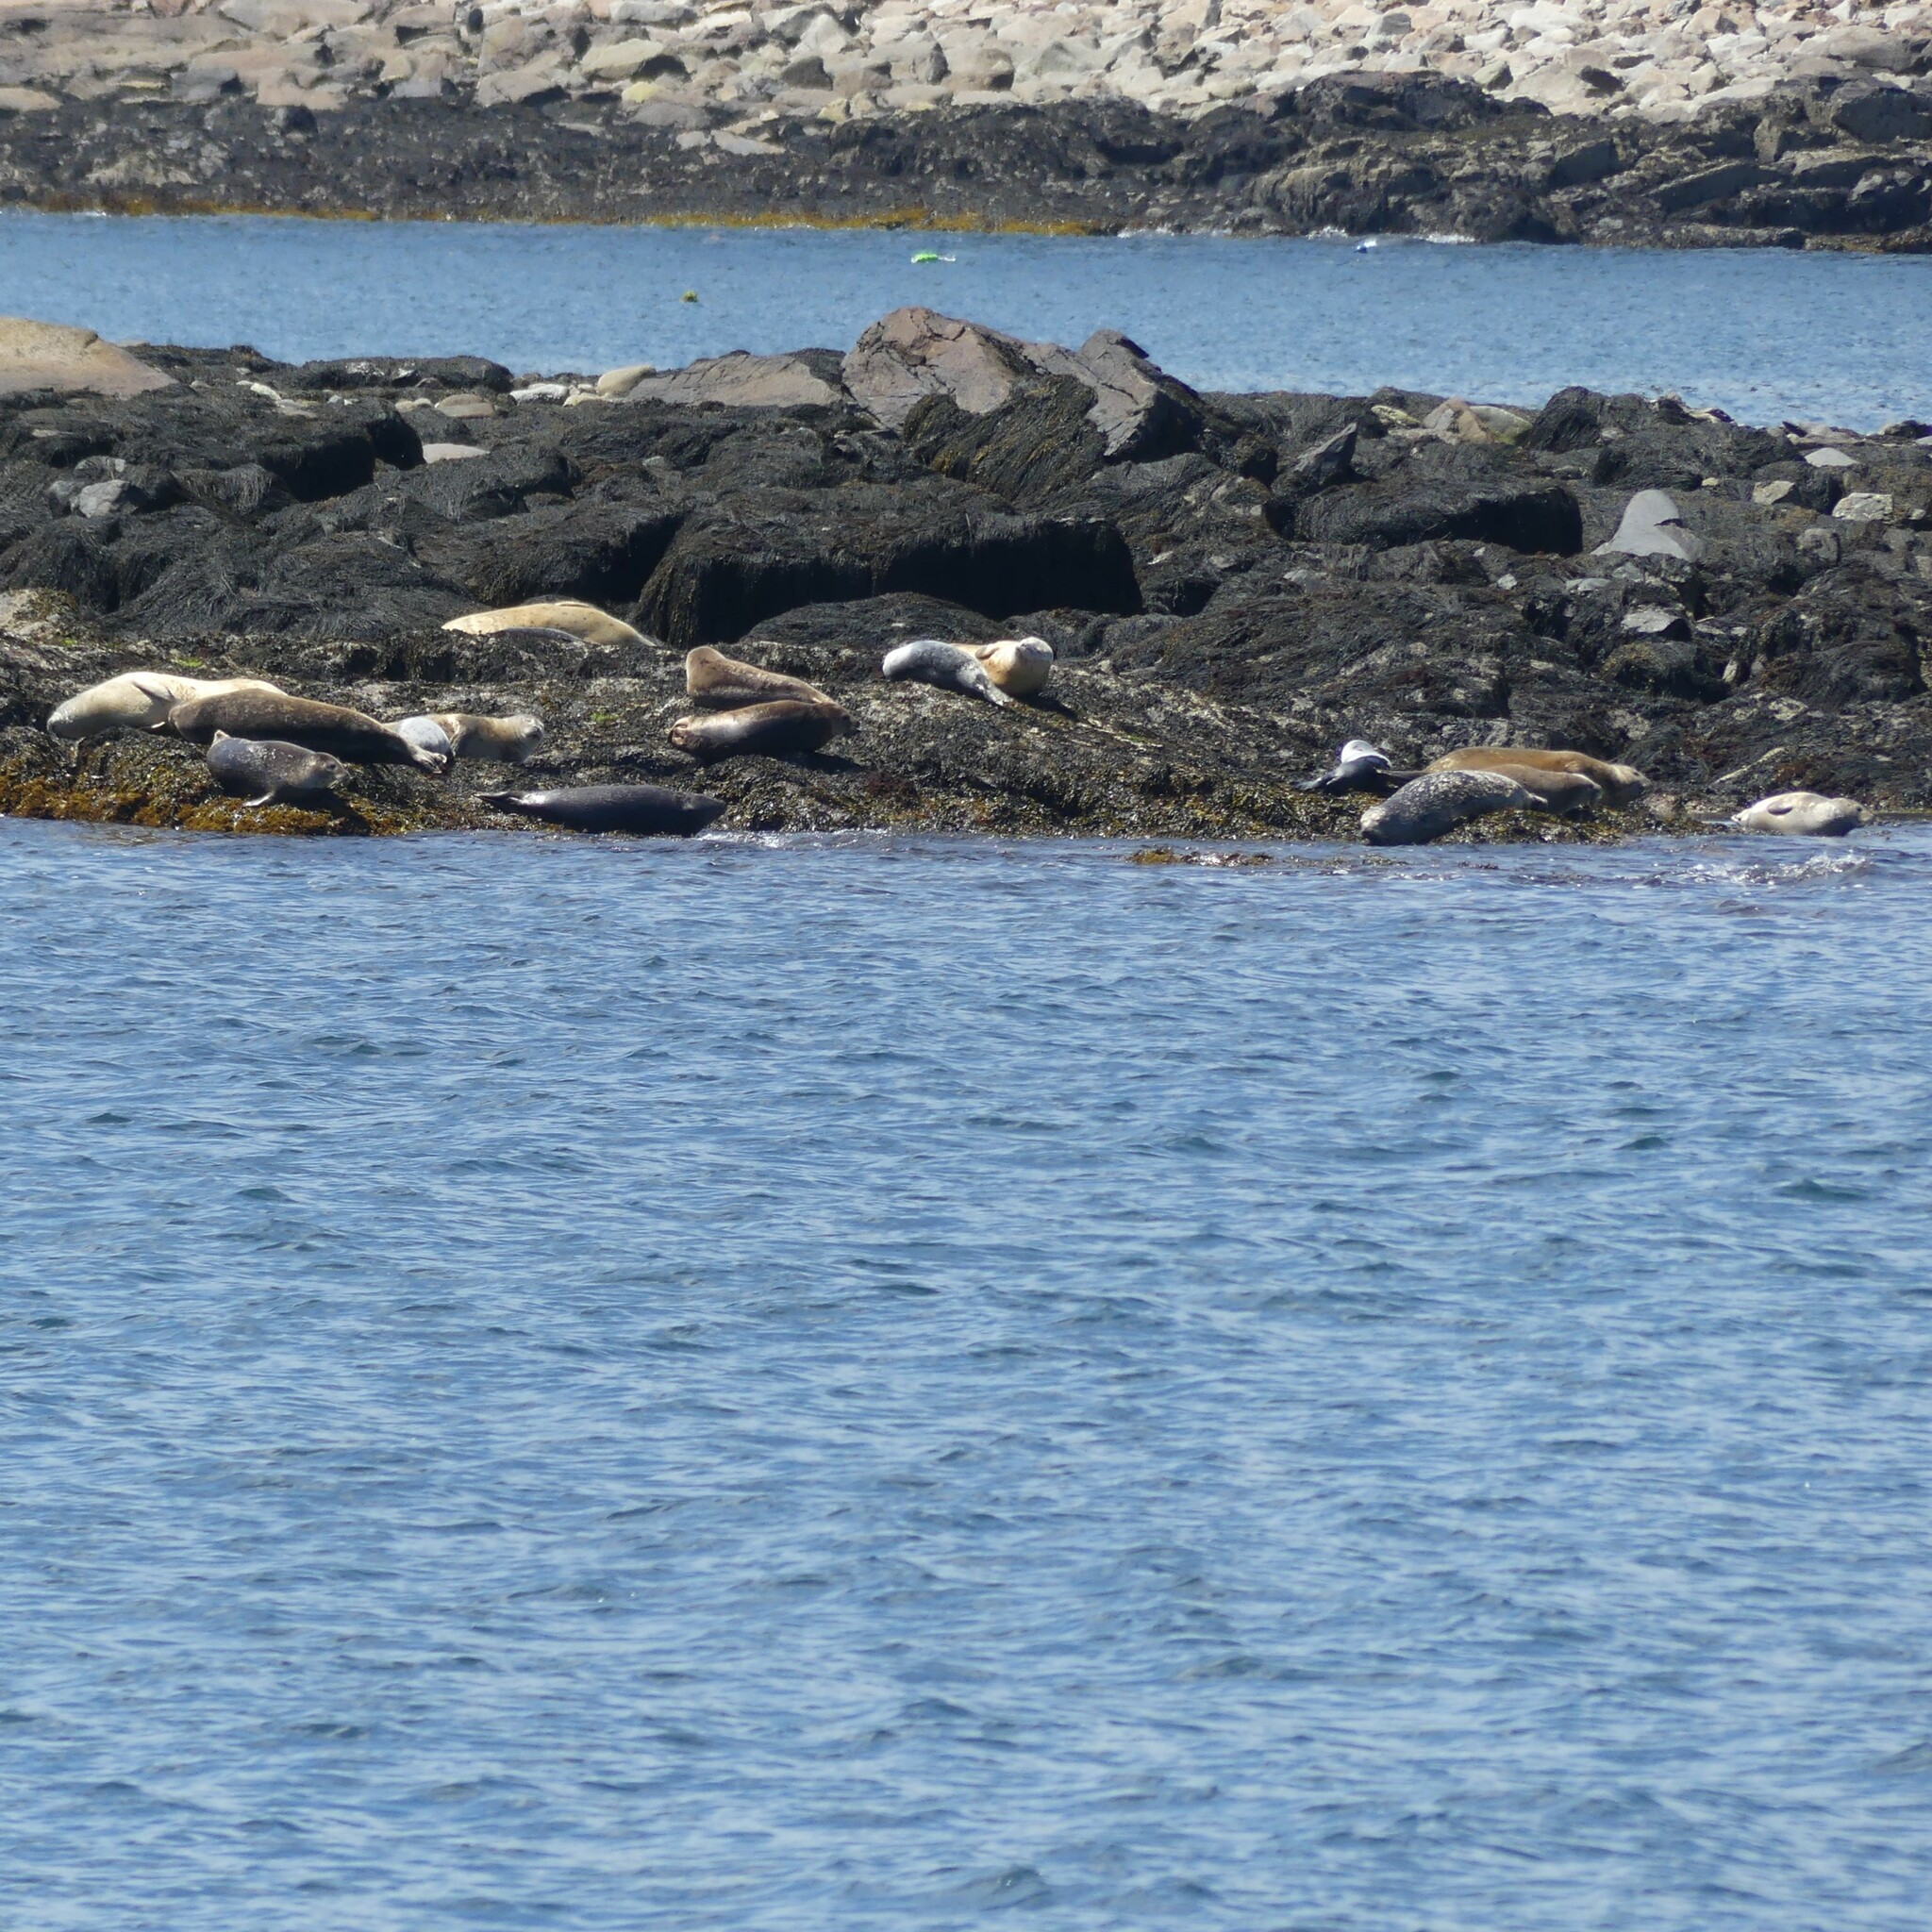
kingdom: Animalia
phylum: Chordata
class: Mammalia
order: Carnivora
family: Phocidae
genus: Phoca
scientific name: Phoca vitulina
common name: Harbor seal
